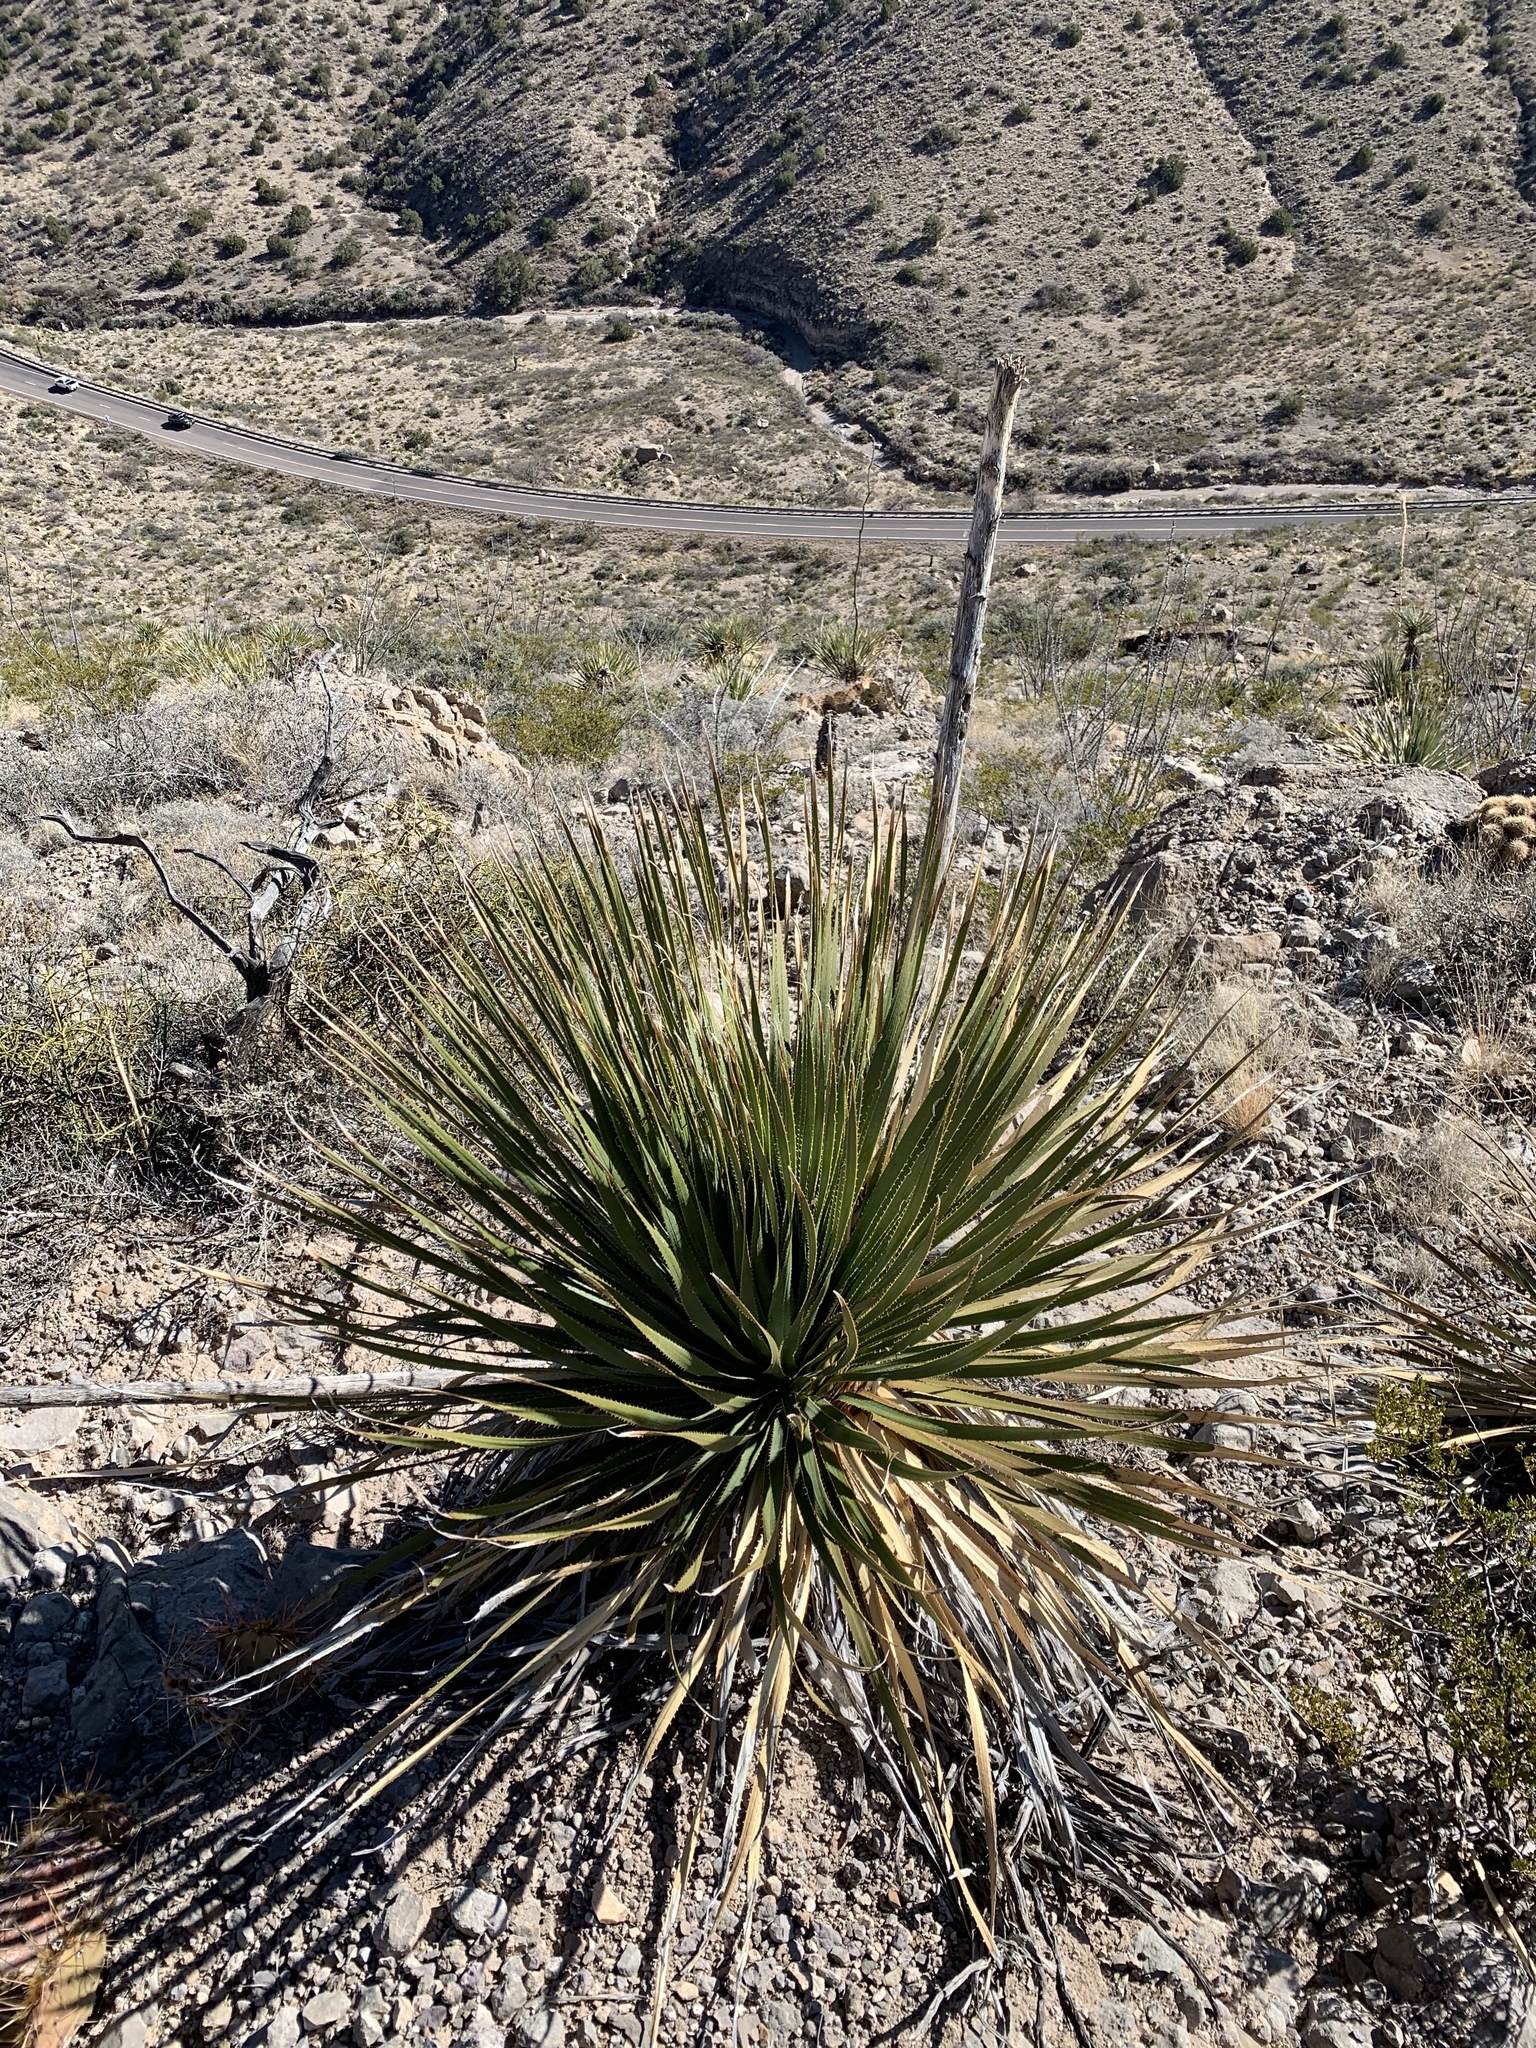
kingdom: Plantae
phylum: Tracheophyta
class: Liliopsida
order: Asparagales
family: Asparagaceae
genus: Dasylirion
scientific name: Dasylirion wheeleri
